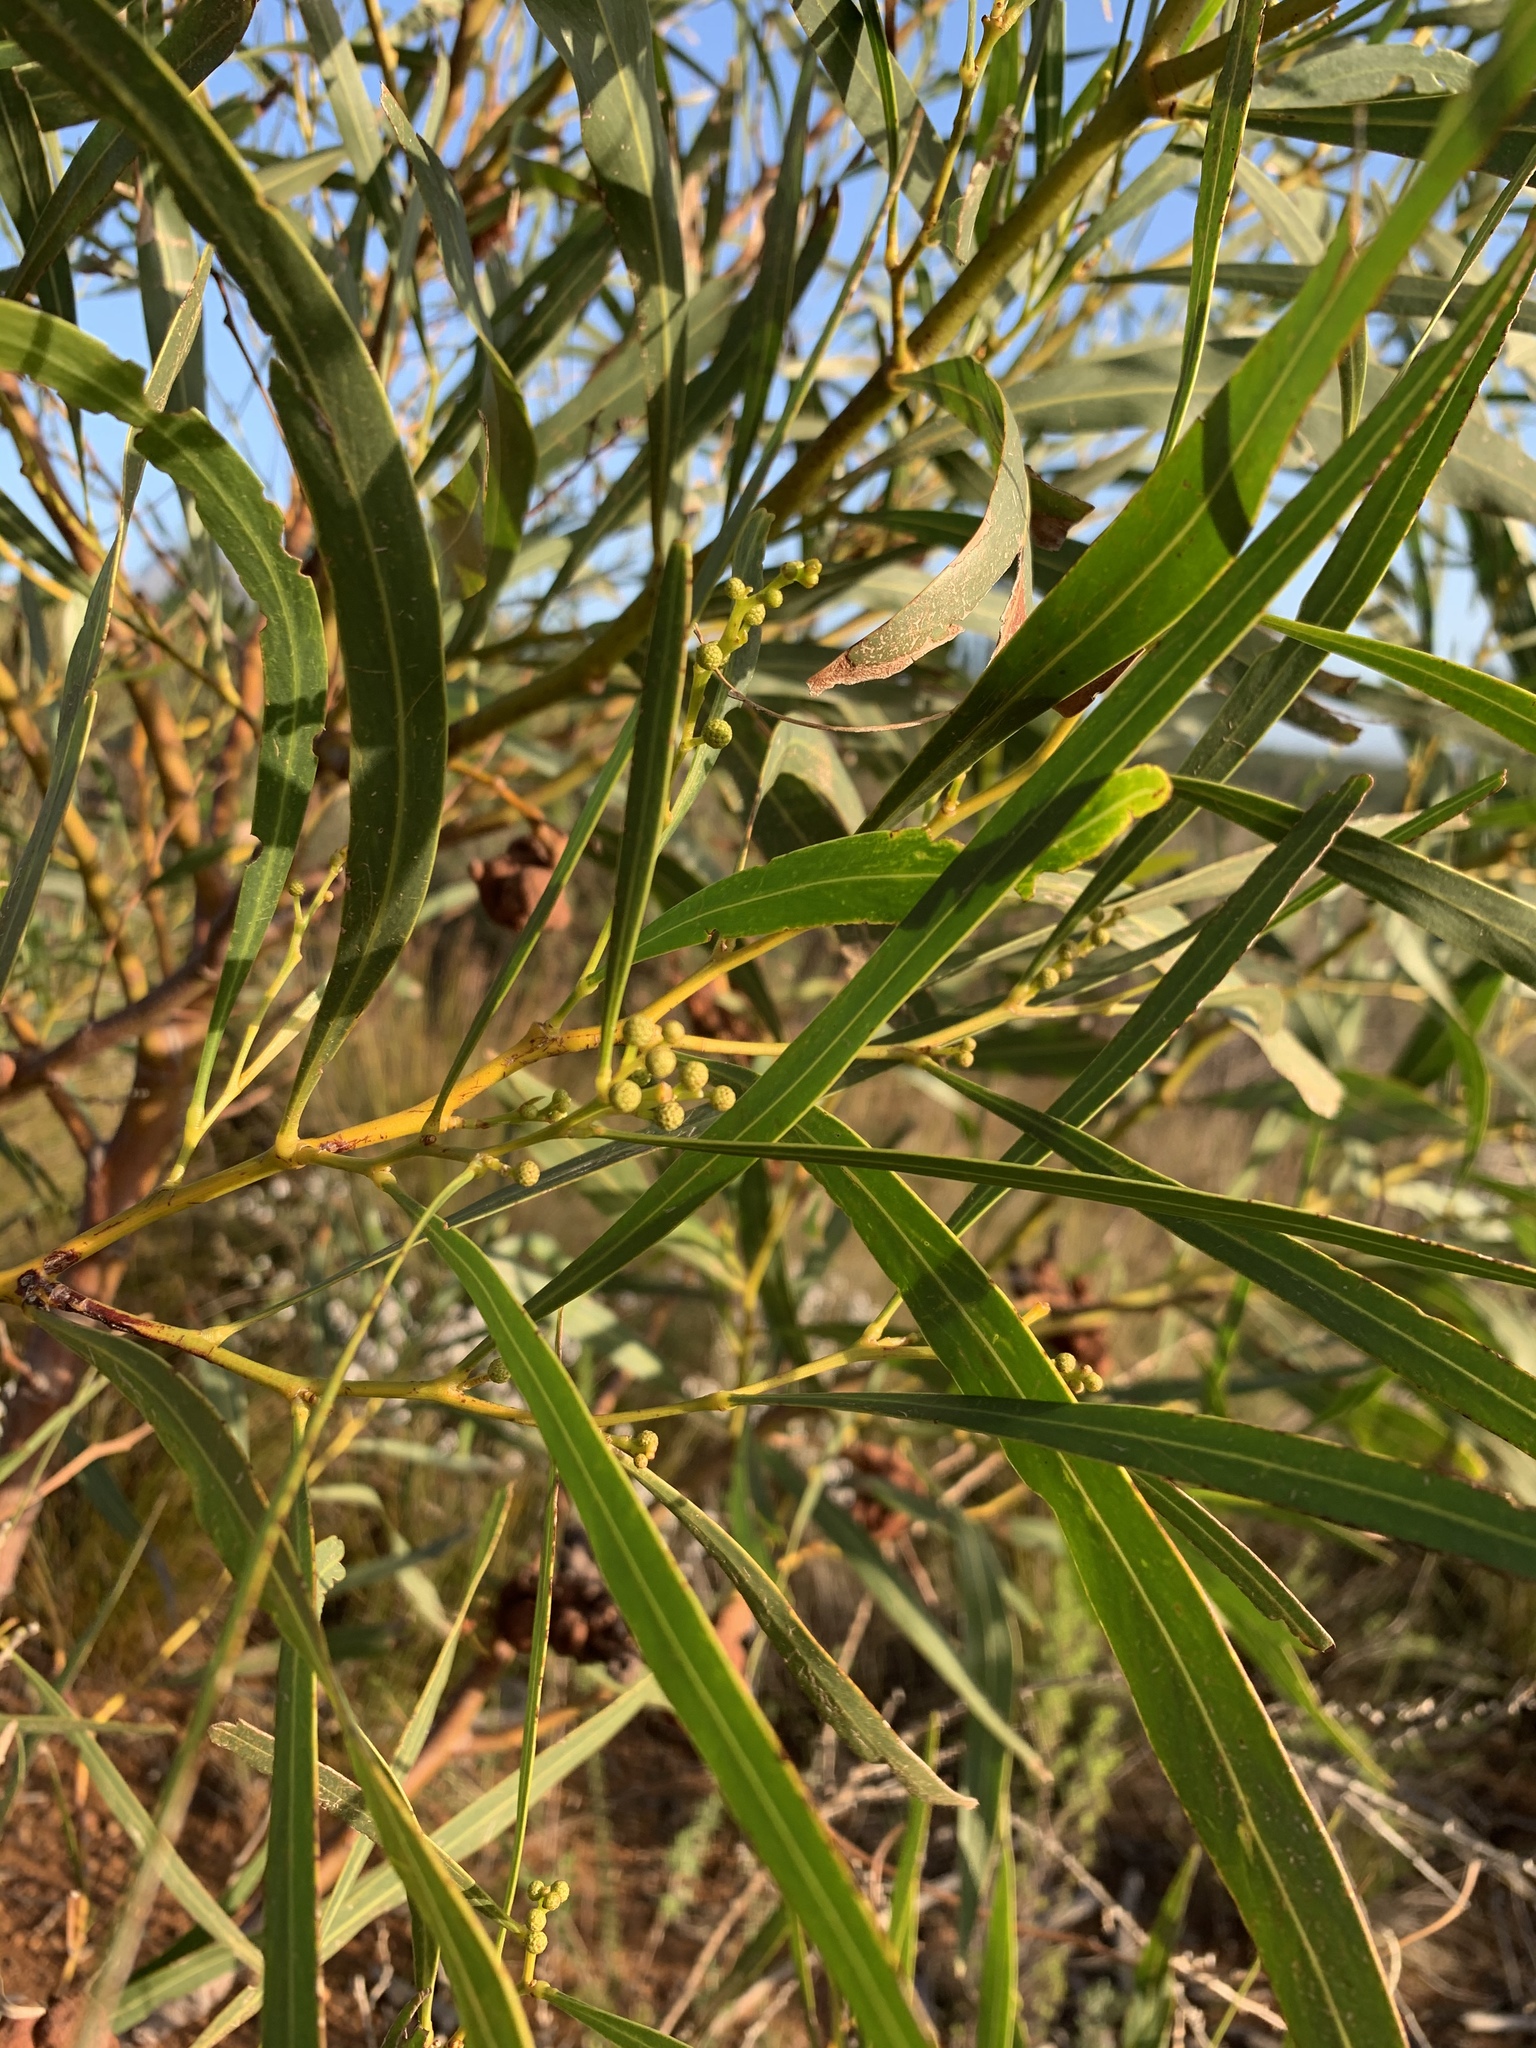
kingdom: Plantae
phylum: Tracheophyta
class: Magnoliopsida
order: Fabales
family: Fabaceae
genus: Acacia
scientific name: Acacia saligna
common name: Orange wattle
